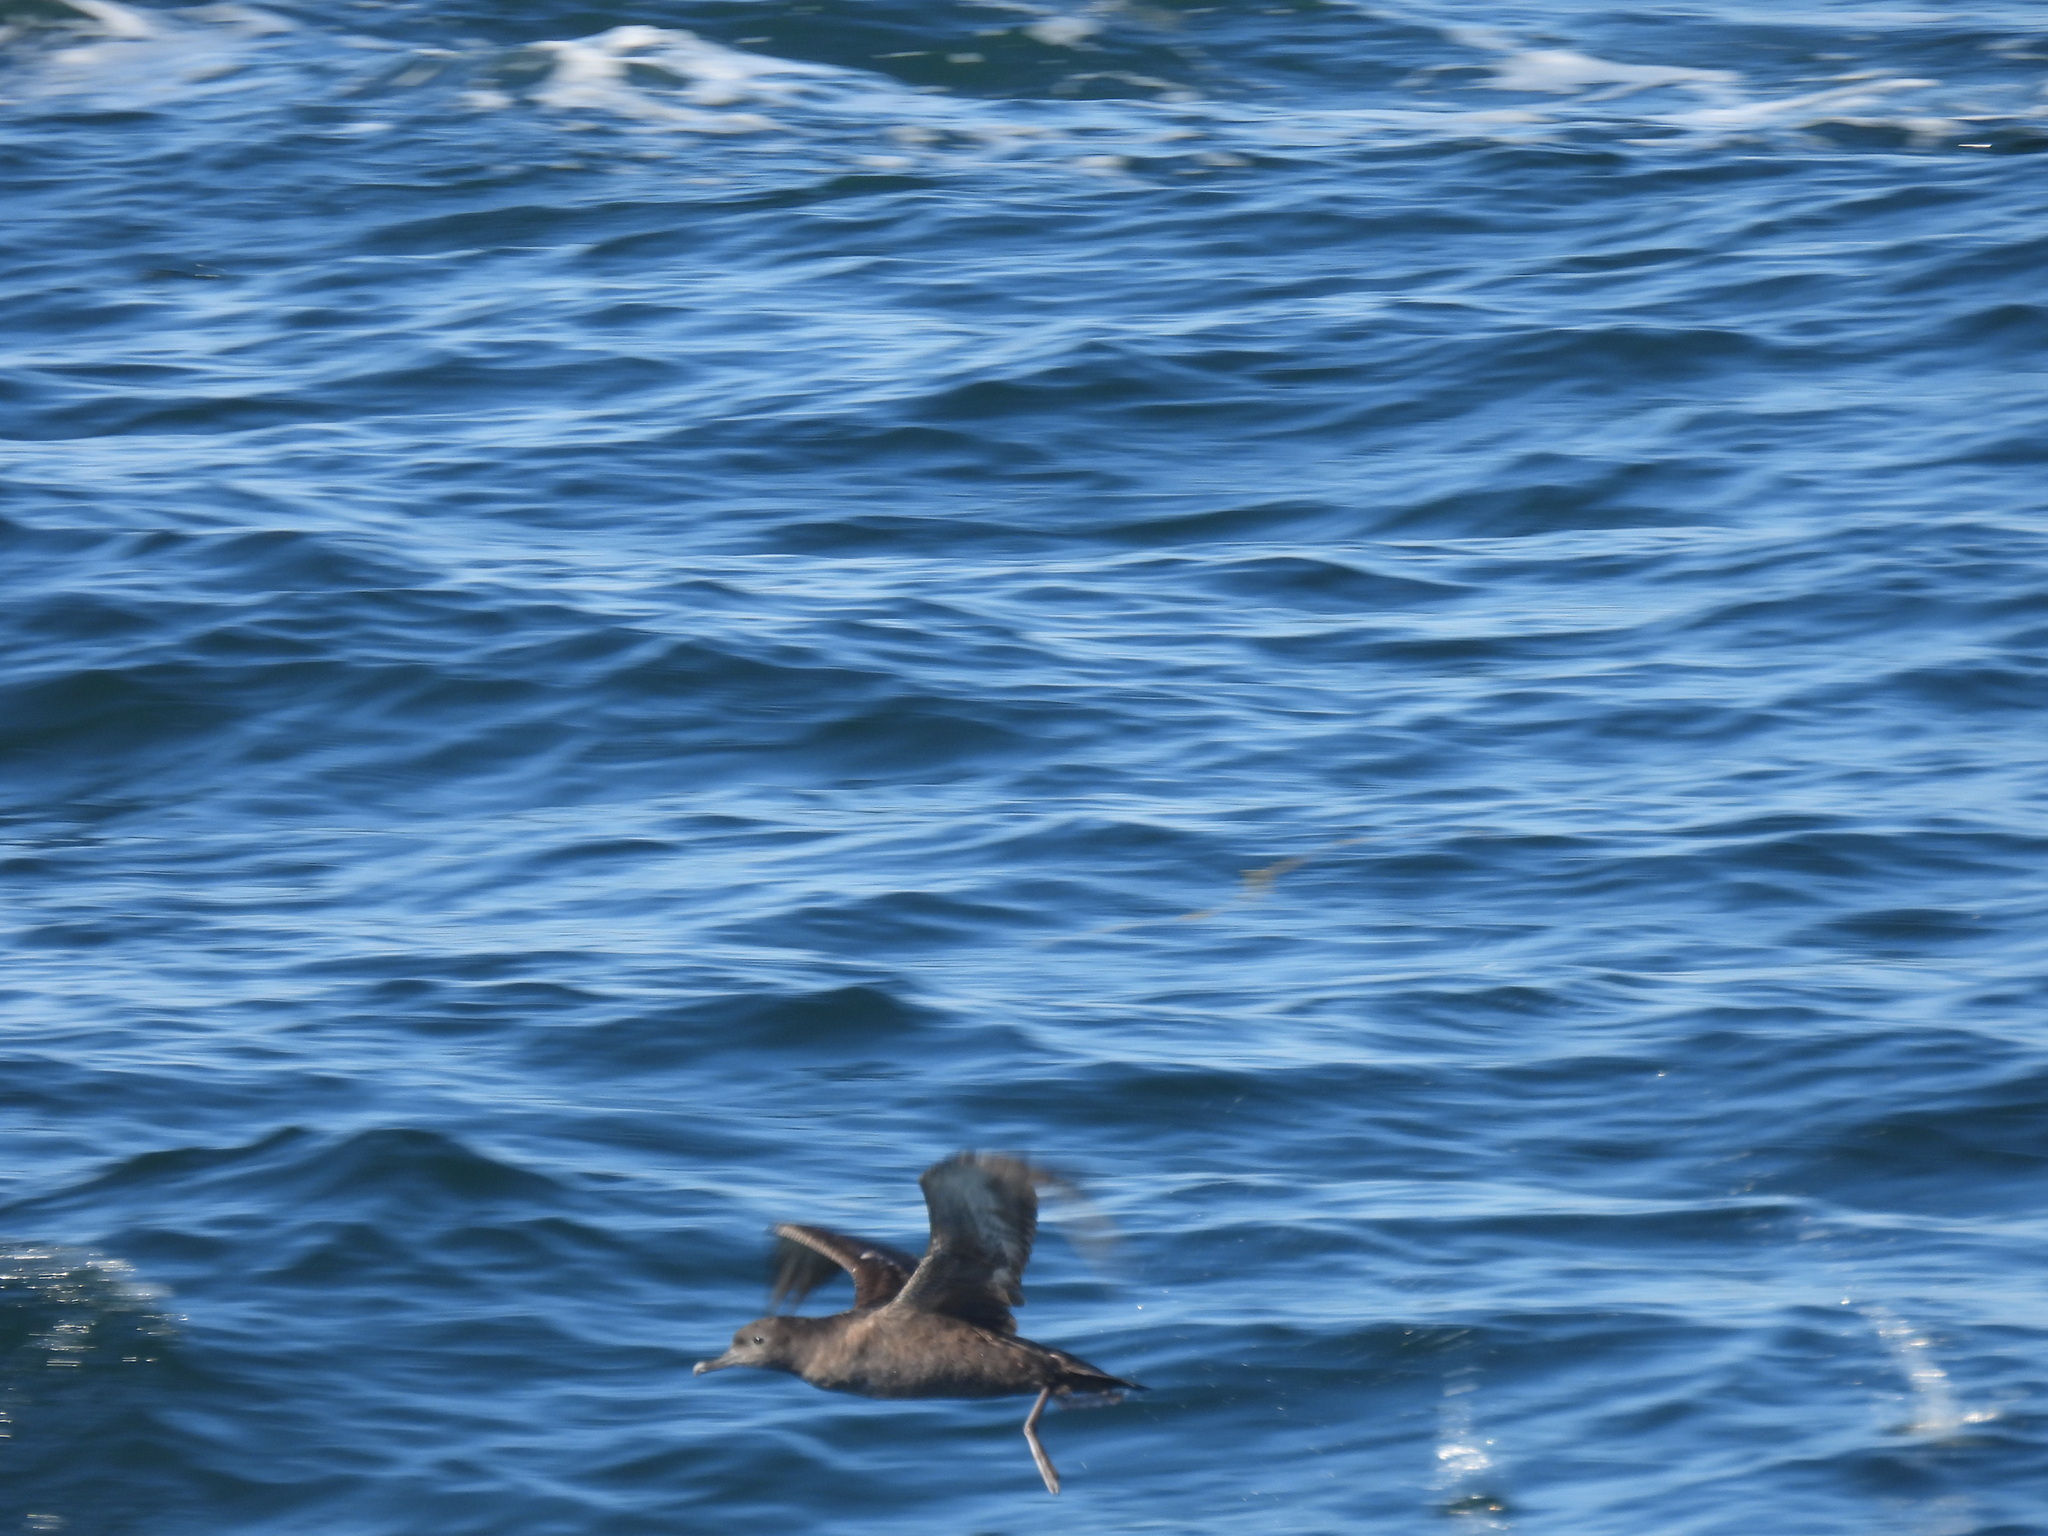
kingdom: Animalia
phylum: Chordata
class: Aves
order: Procellariiformes
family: Procellariidae
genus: Puffinus
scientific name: Puffinus griseus
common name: Sooty shearwater
